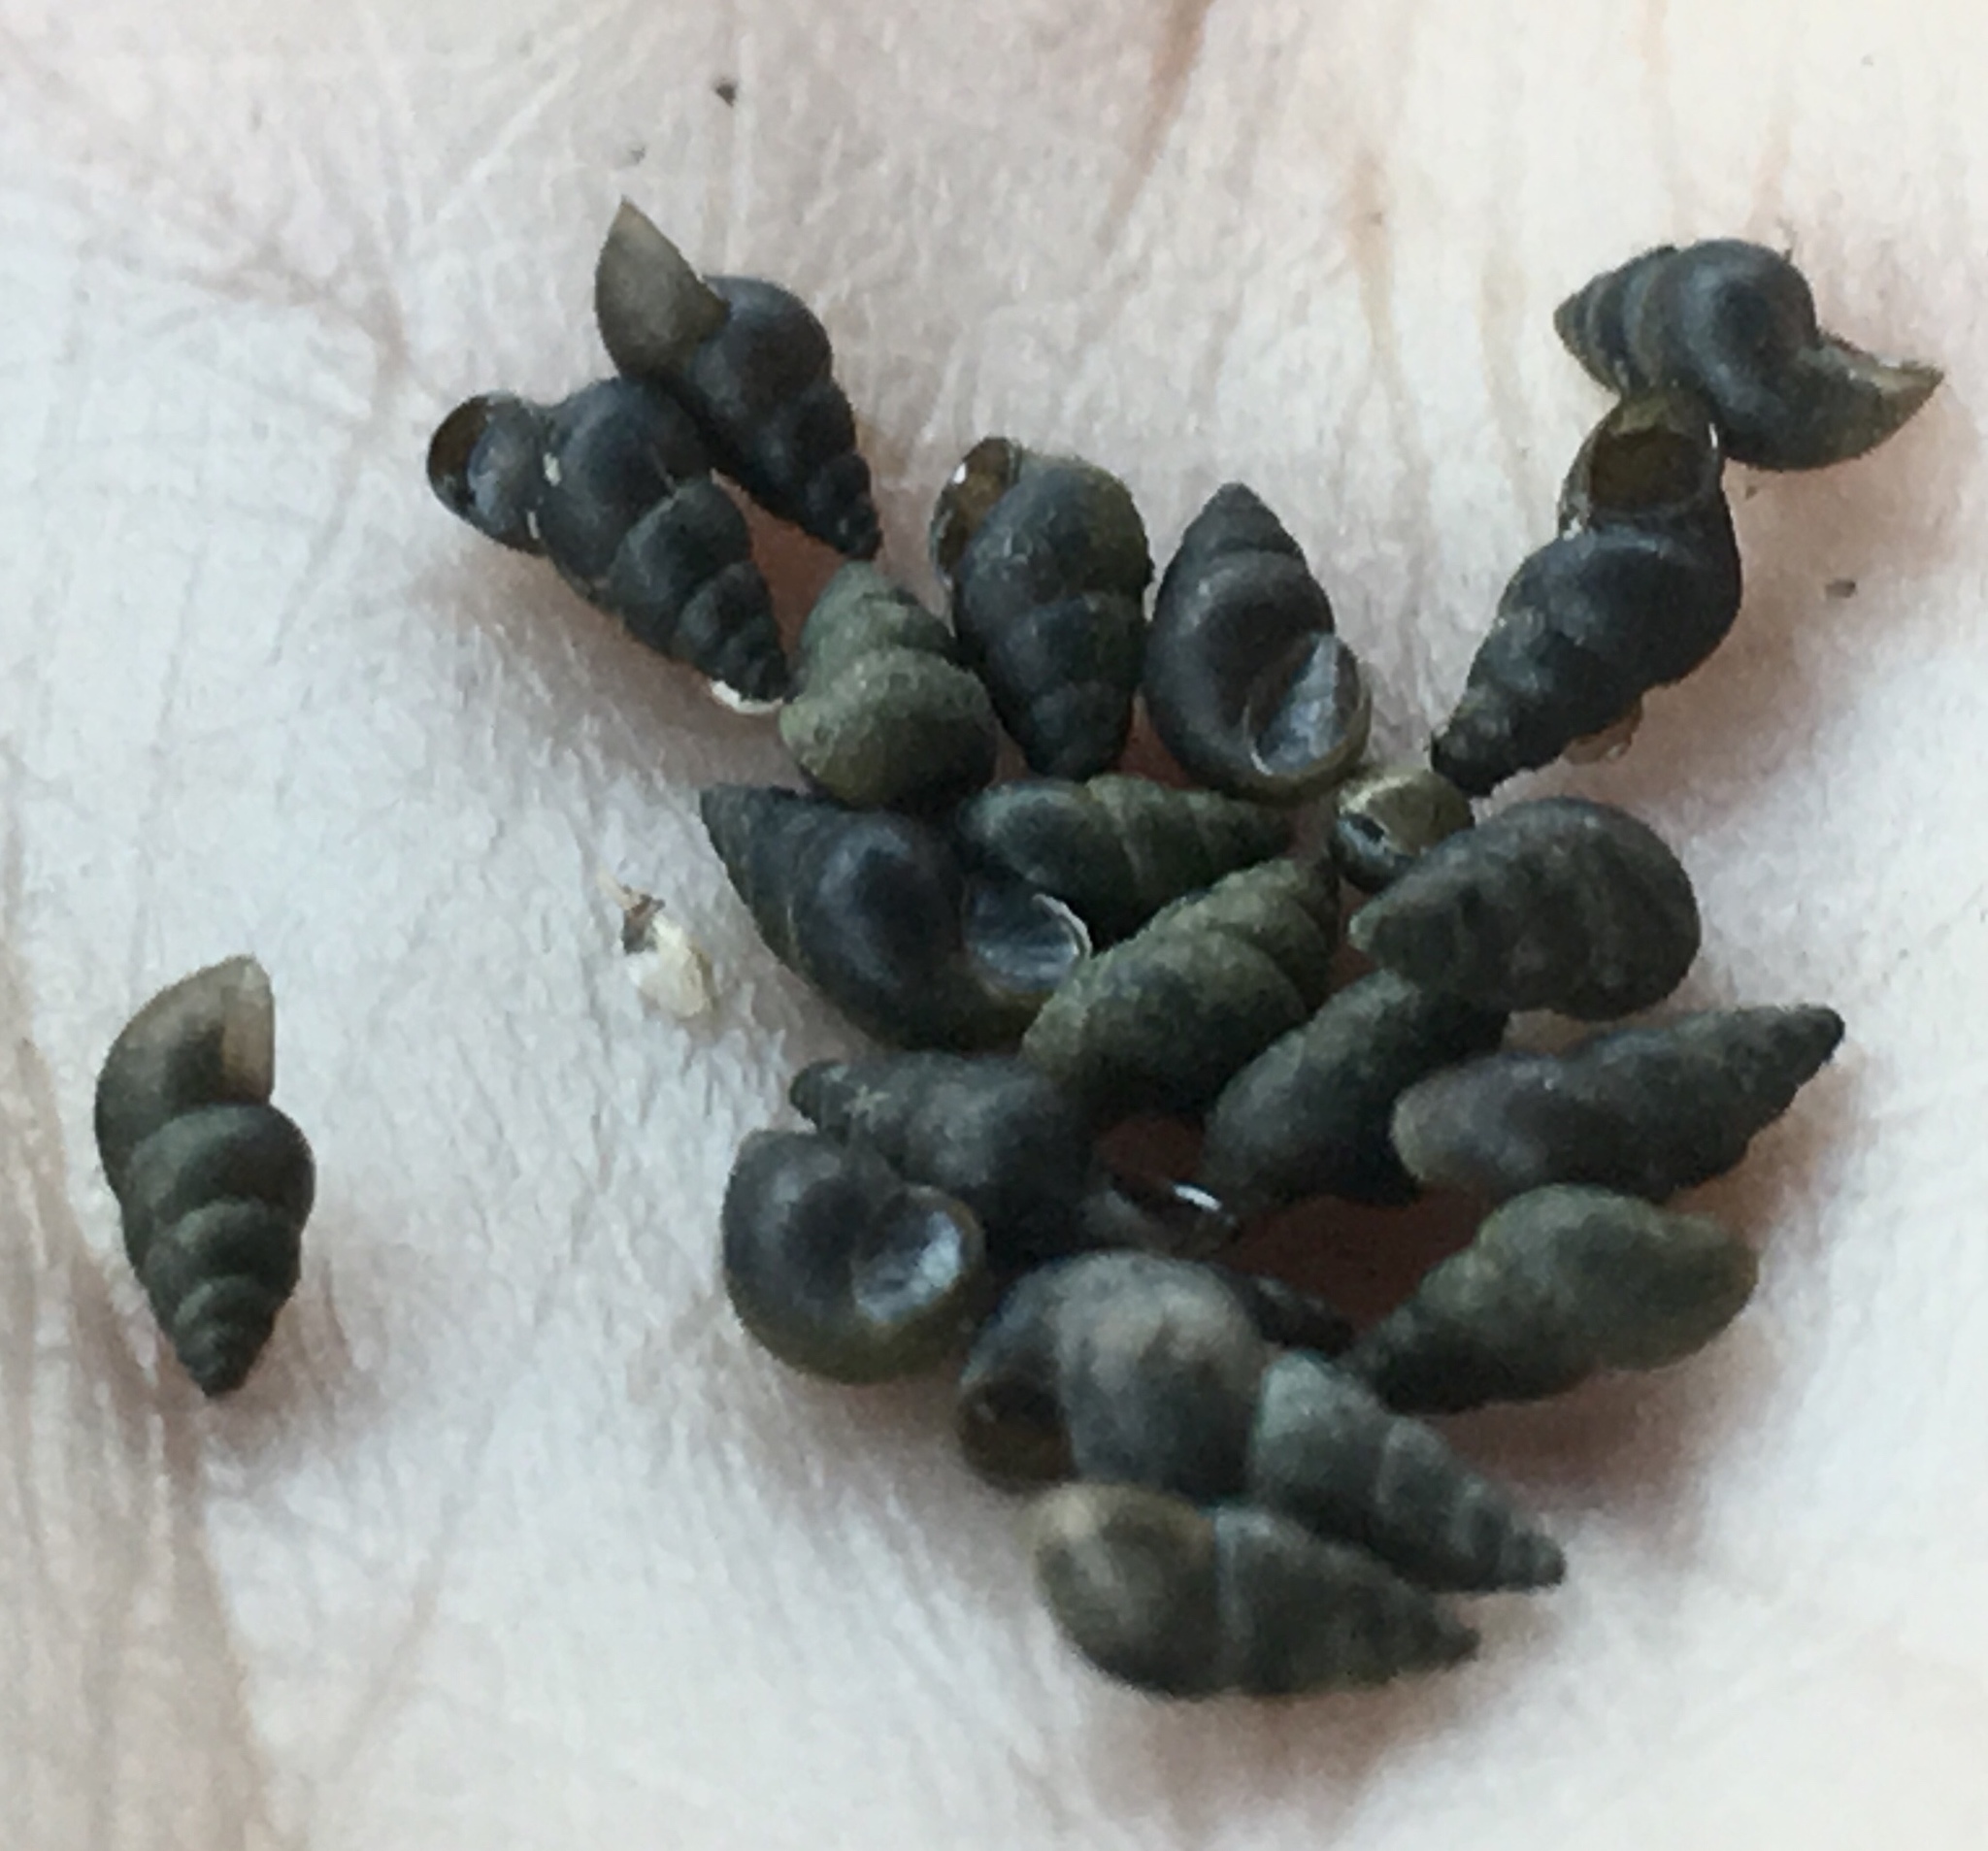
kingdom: Animalia
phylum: Mollusca
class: Gastropoda
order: Littorinimorpha
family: Tateidae
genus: Potamopyrgus
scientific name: Potamopyrgus antipodarum
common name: Jenkins' spire snail
